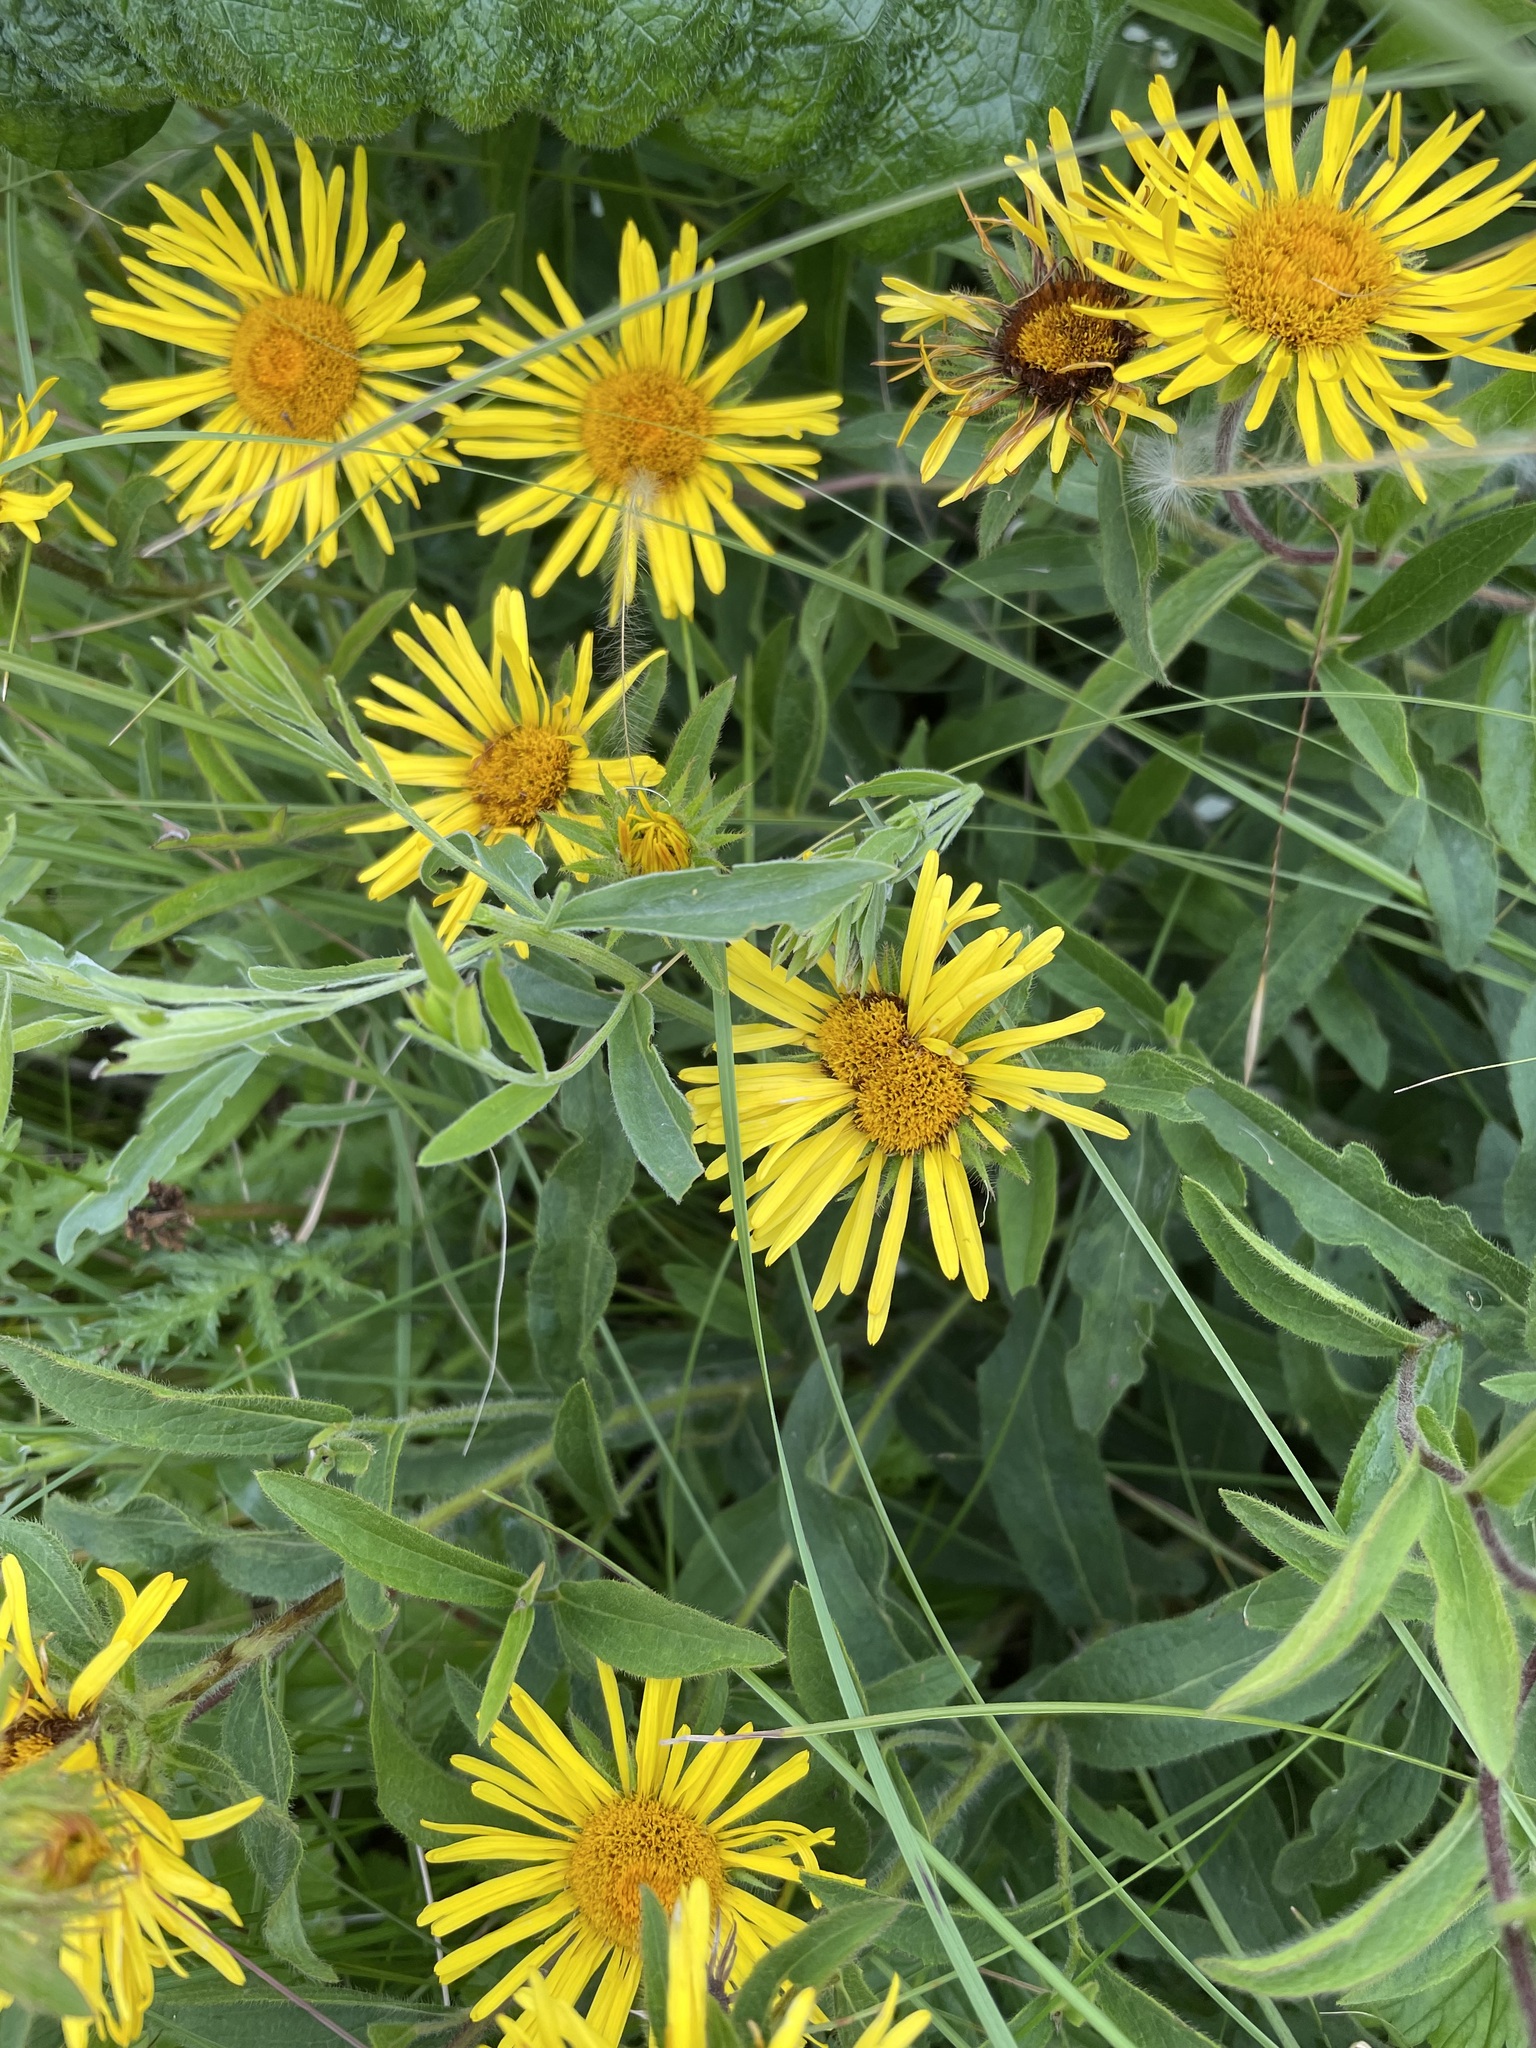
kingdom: Plantae
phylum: Tracheophyta
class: Magnoliopsida
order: Asterales
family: Asteraceae
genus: Pentanema
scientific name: Pentanema hirtum
